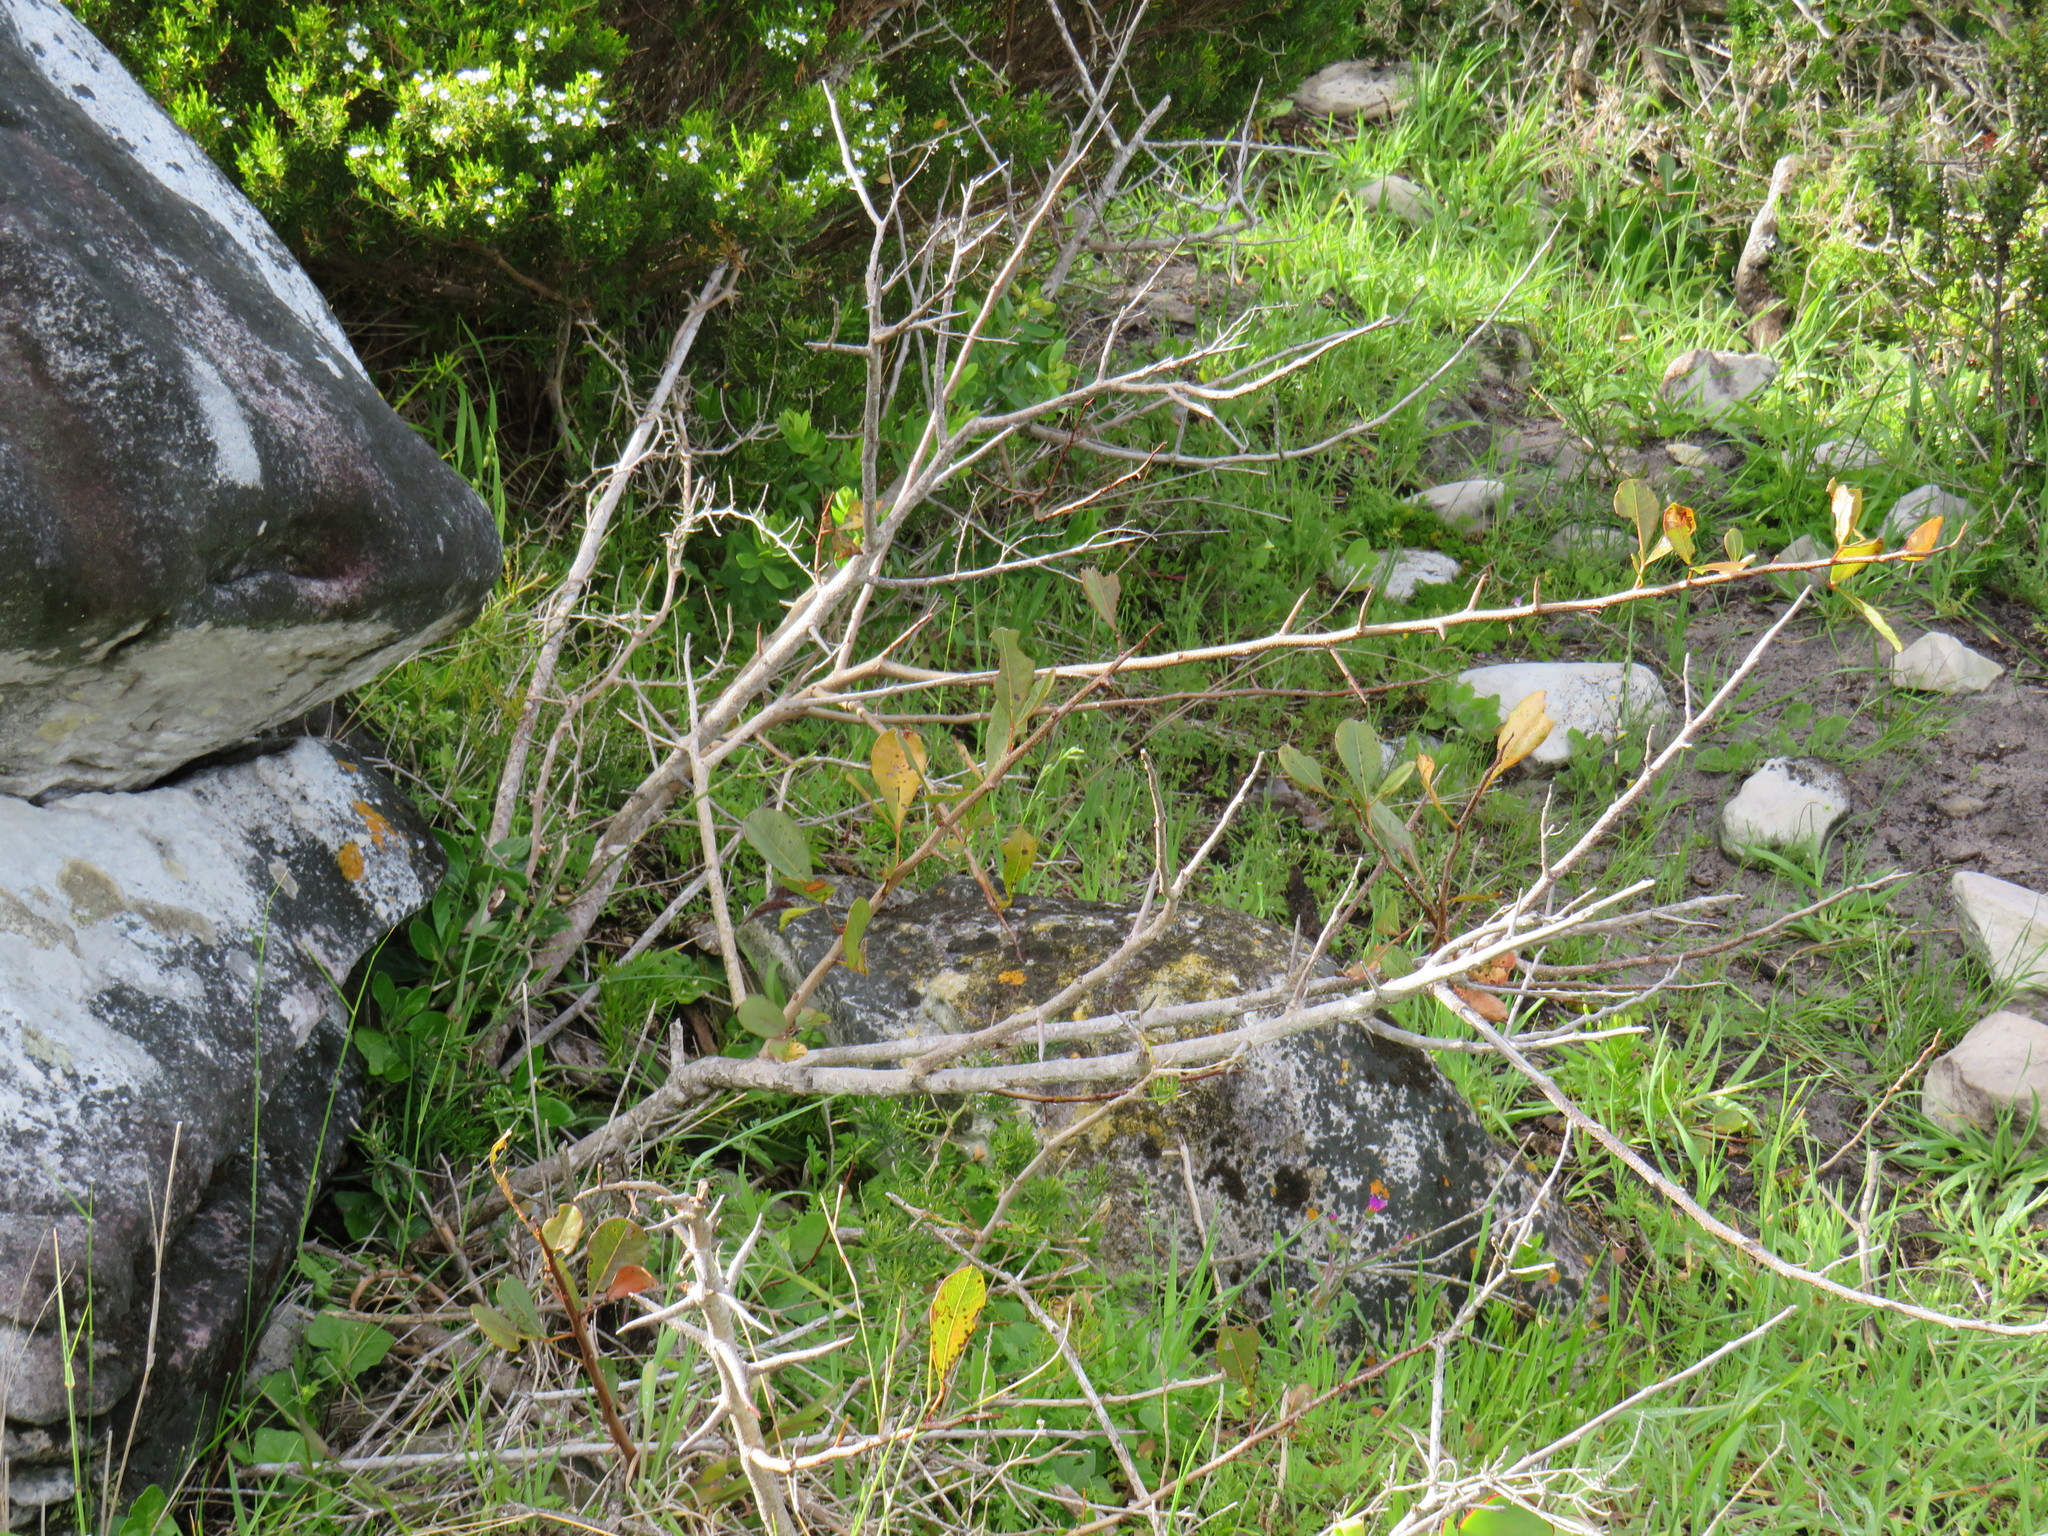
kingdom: Plantae
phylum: Tracheophyta
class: Magnoliopsida
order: Sapindales
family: Anacardiaceae
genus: Searsia
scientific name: Searsia laevigata
